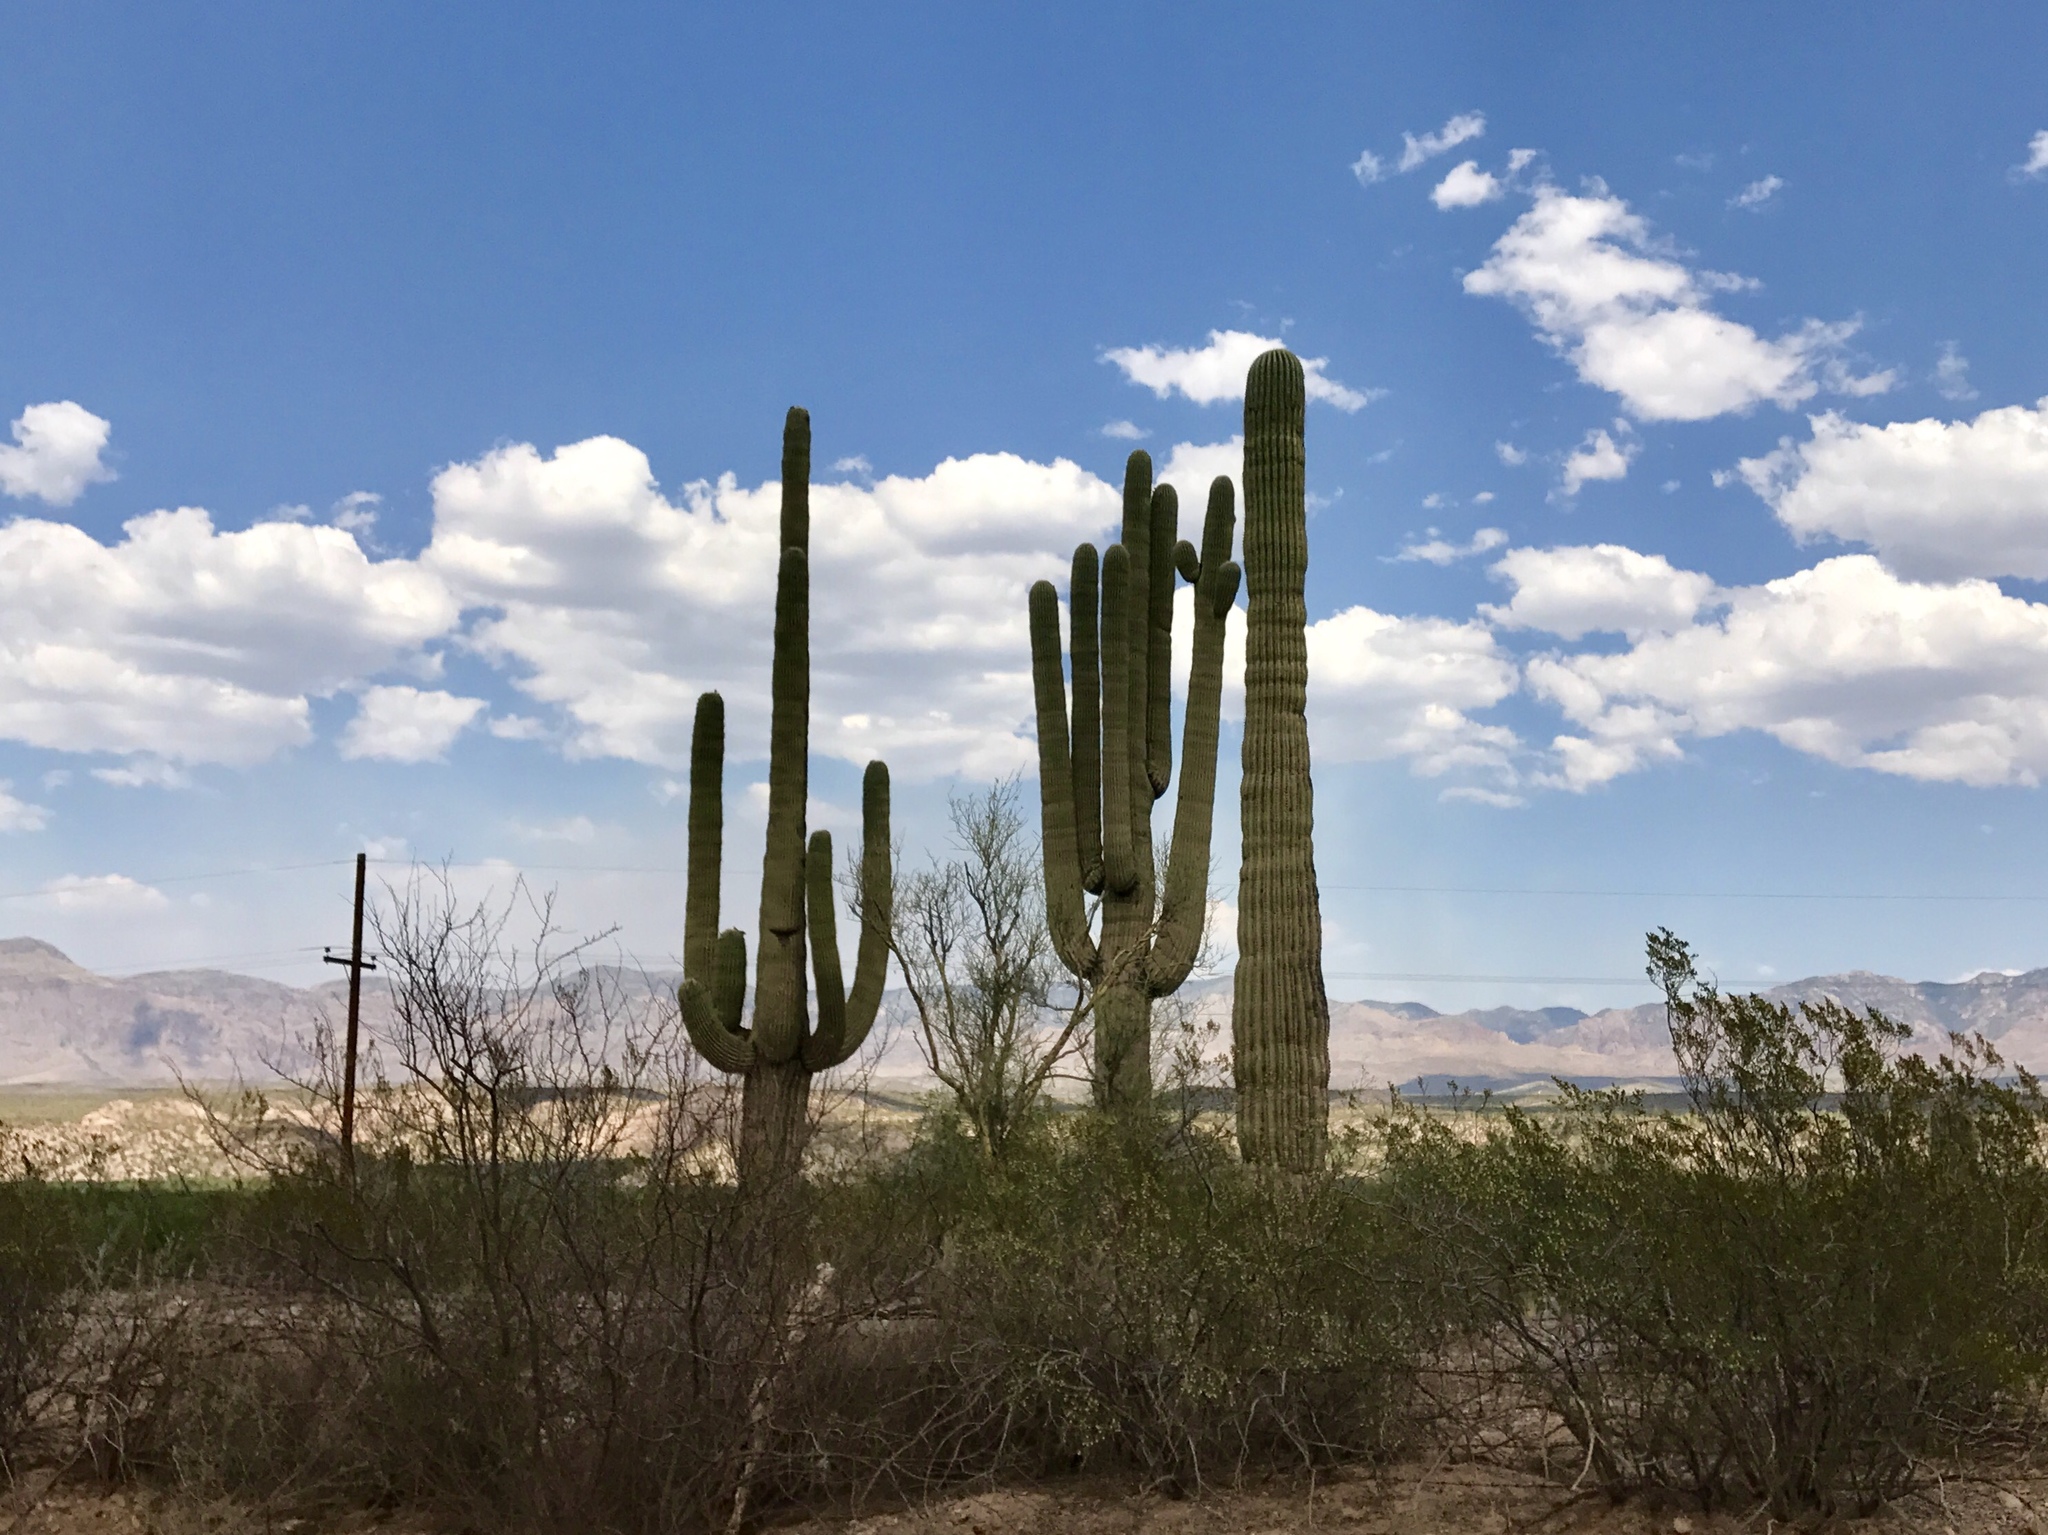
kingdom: Plantae
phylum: Tracheophyta
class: Magnoliopsida
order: Caryophyllales
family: Cactaceae
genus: Carnegiea
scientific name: Carnegiea gigantea
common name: Saguaro
